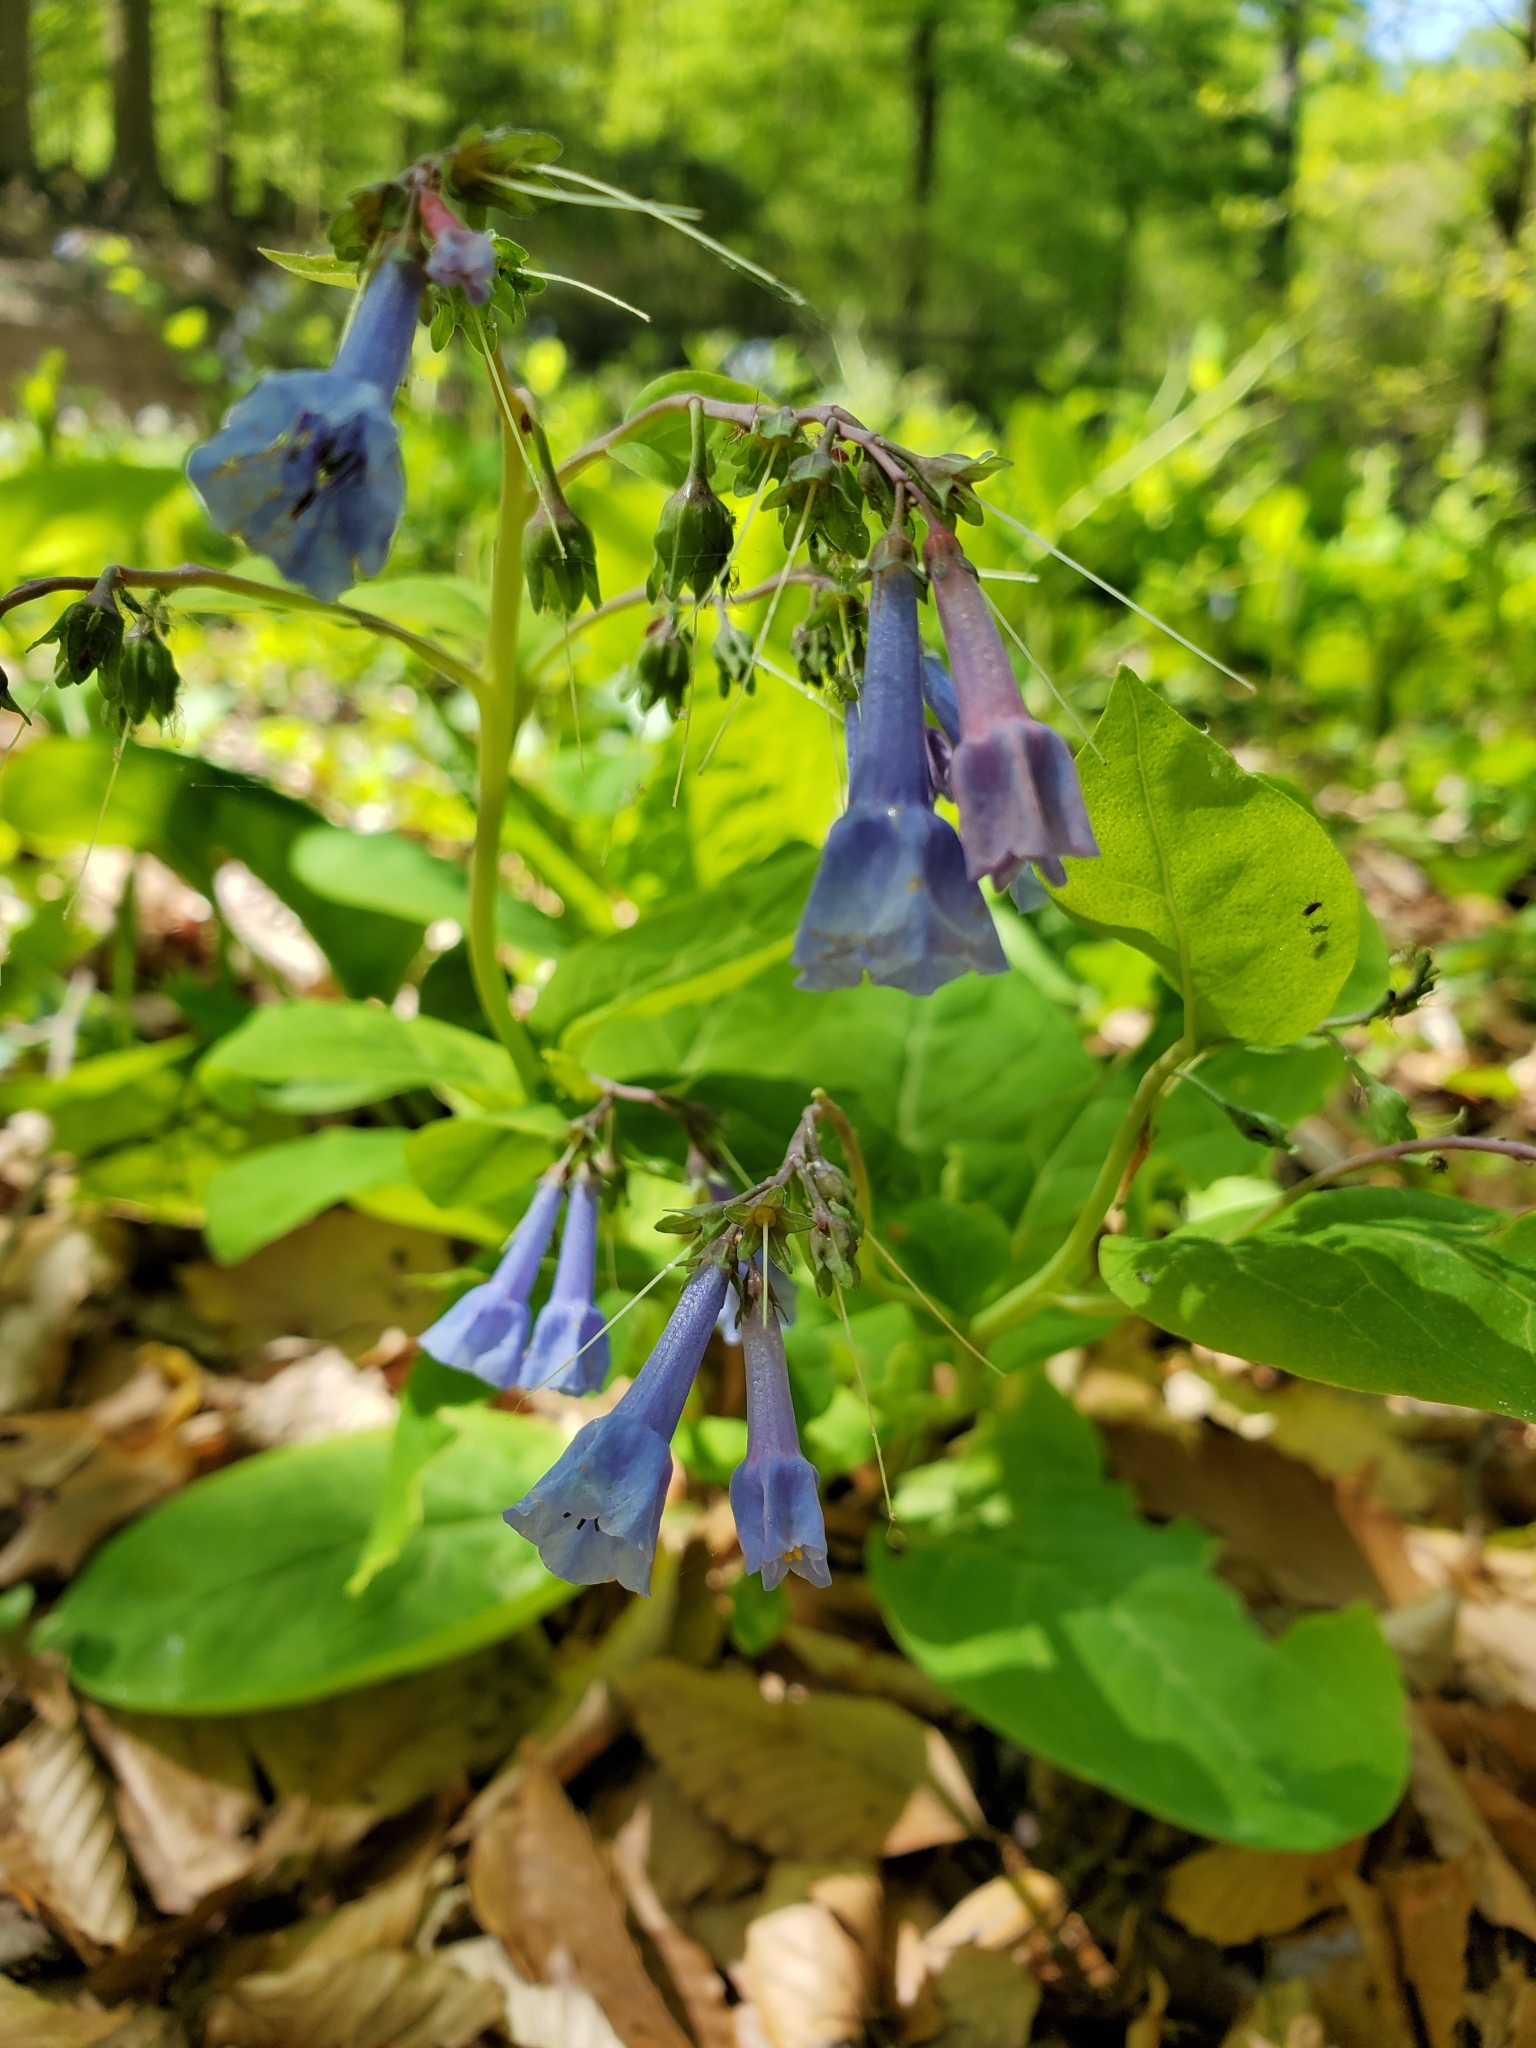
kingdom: Plantae
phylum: Tracheophyta
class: Magnoliopsida
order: Boraginales
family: Boraginaceae
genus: Mertensia
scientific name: Mertensia virginica
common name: Virginia bluebells
